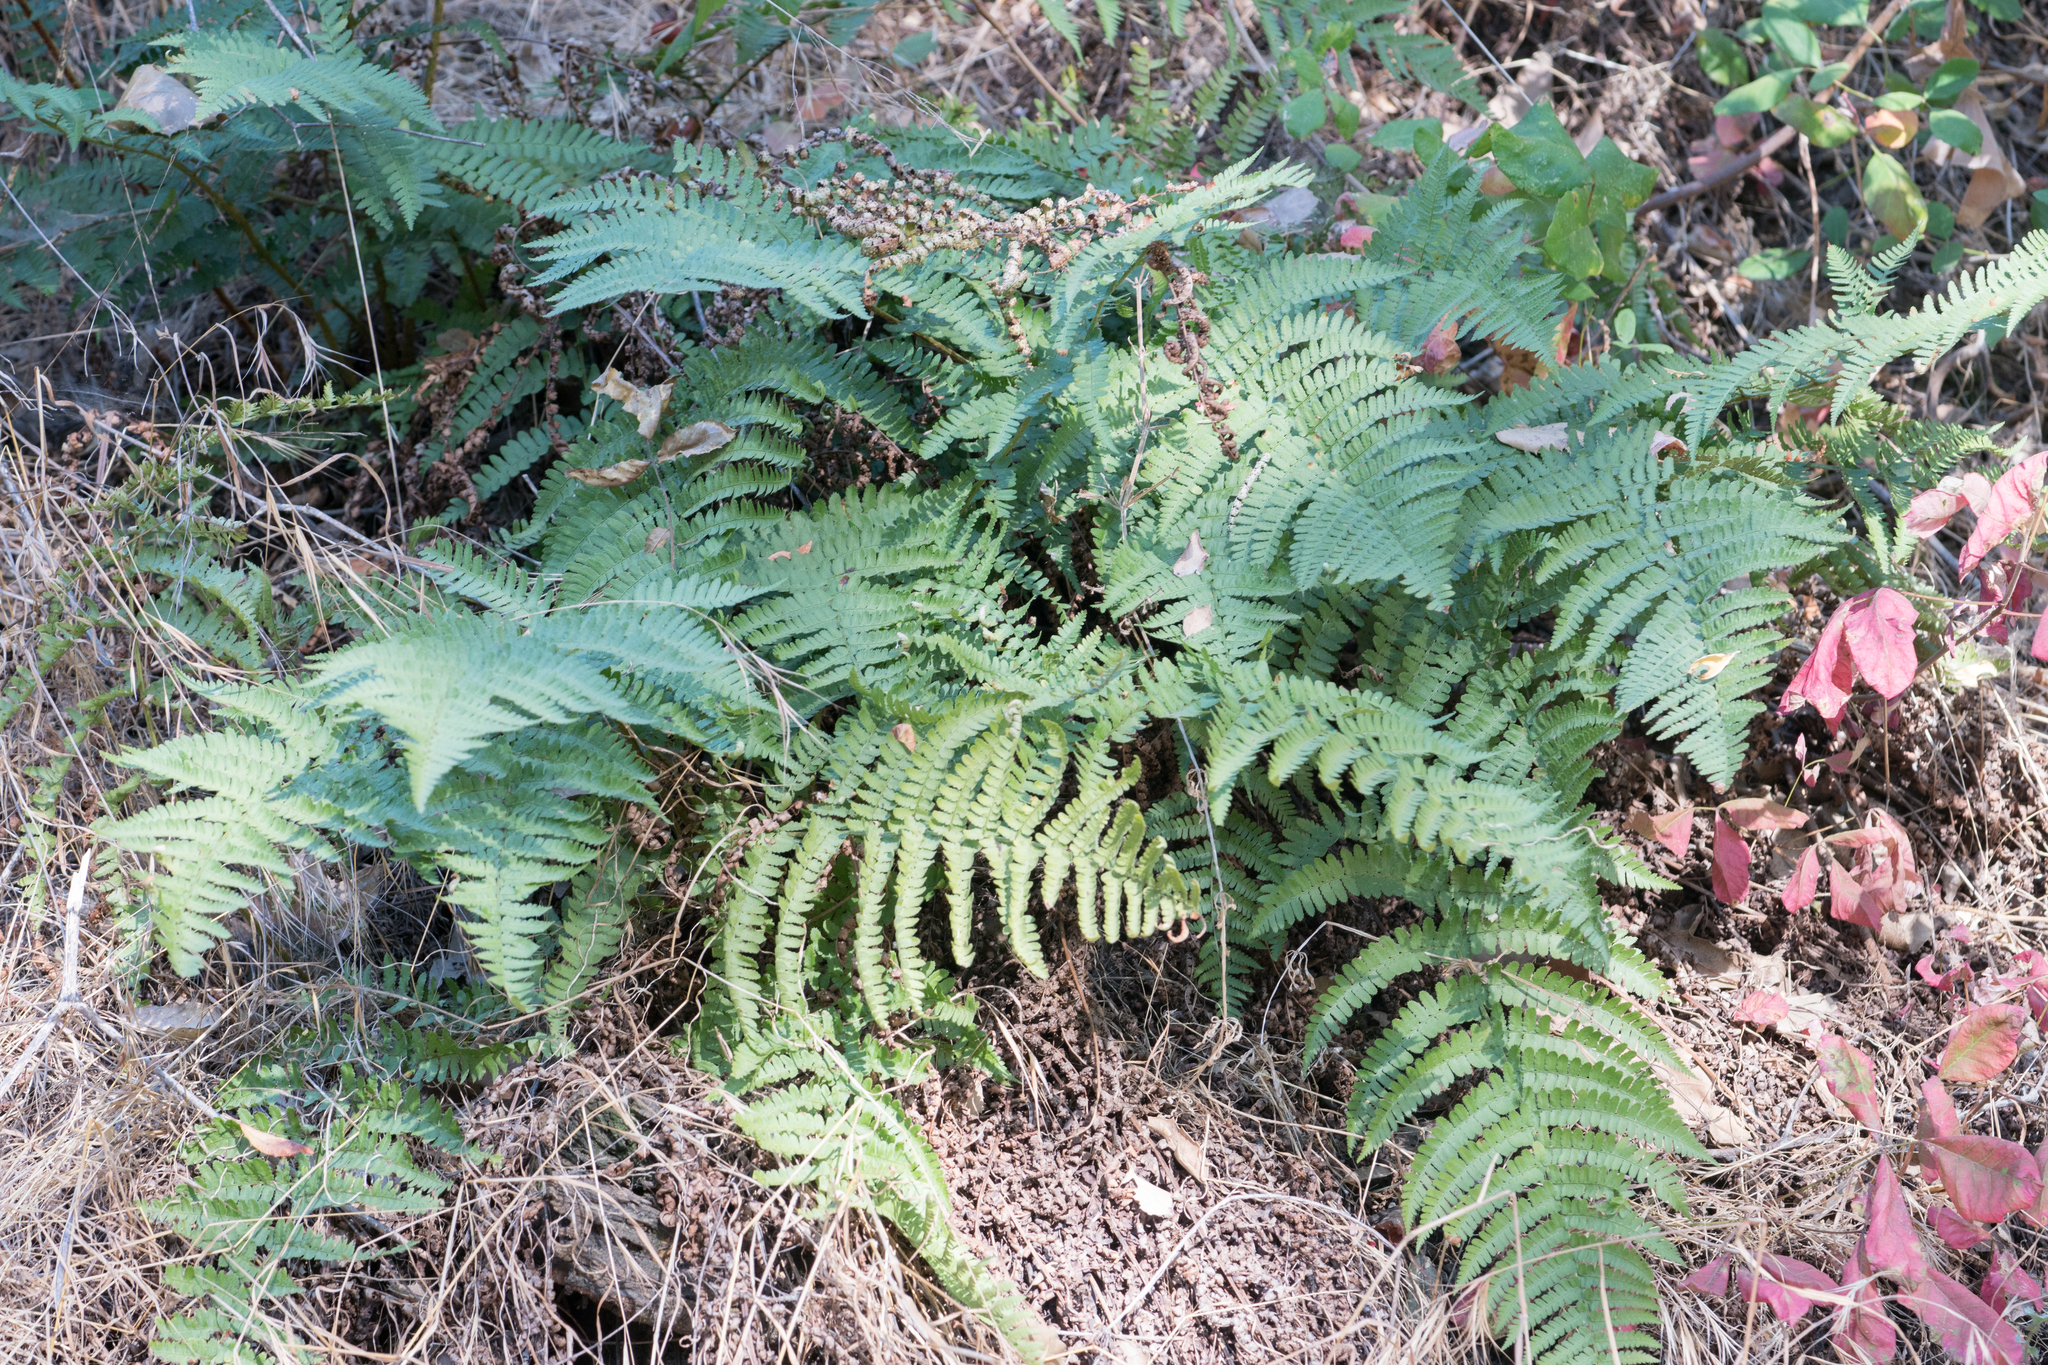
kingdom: Plantae
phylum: Tracheophyta
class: Polypodiopsida
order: Polypodiales
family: Dryopteridaceae
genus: Dryopteris
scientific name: Dryopteris arguta
